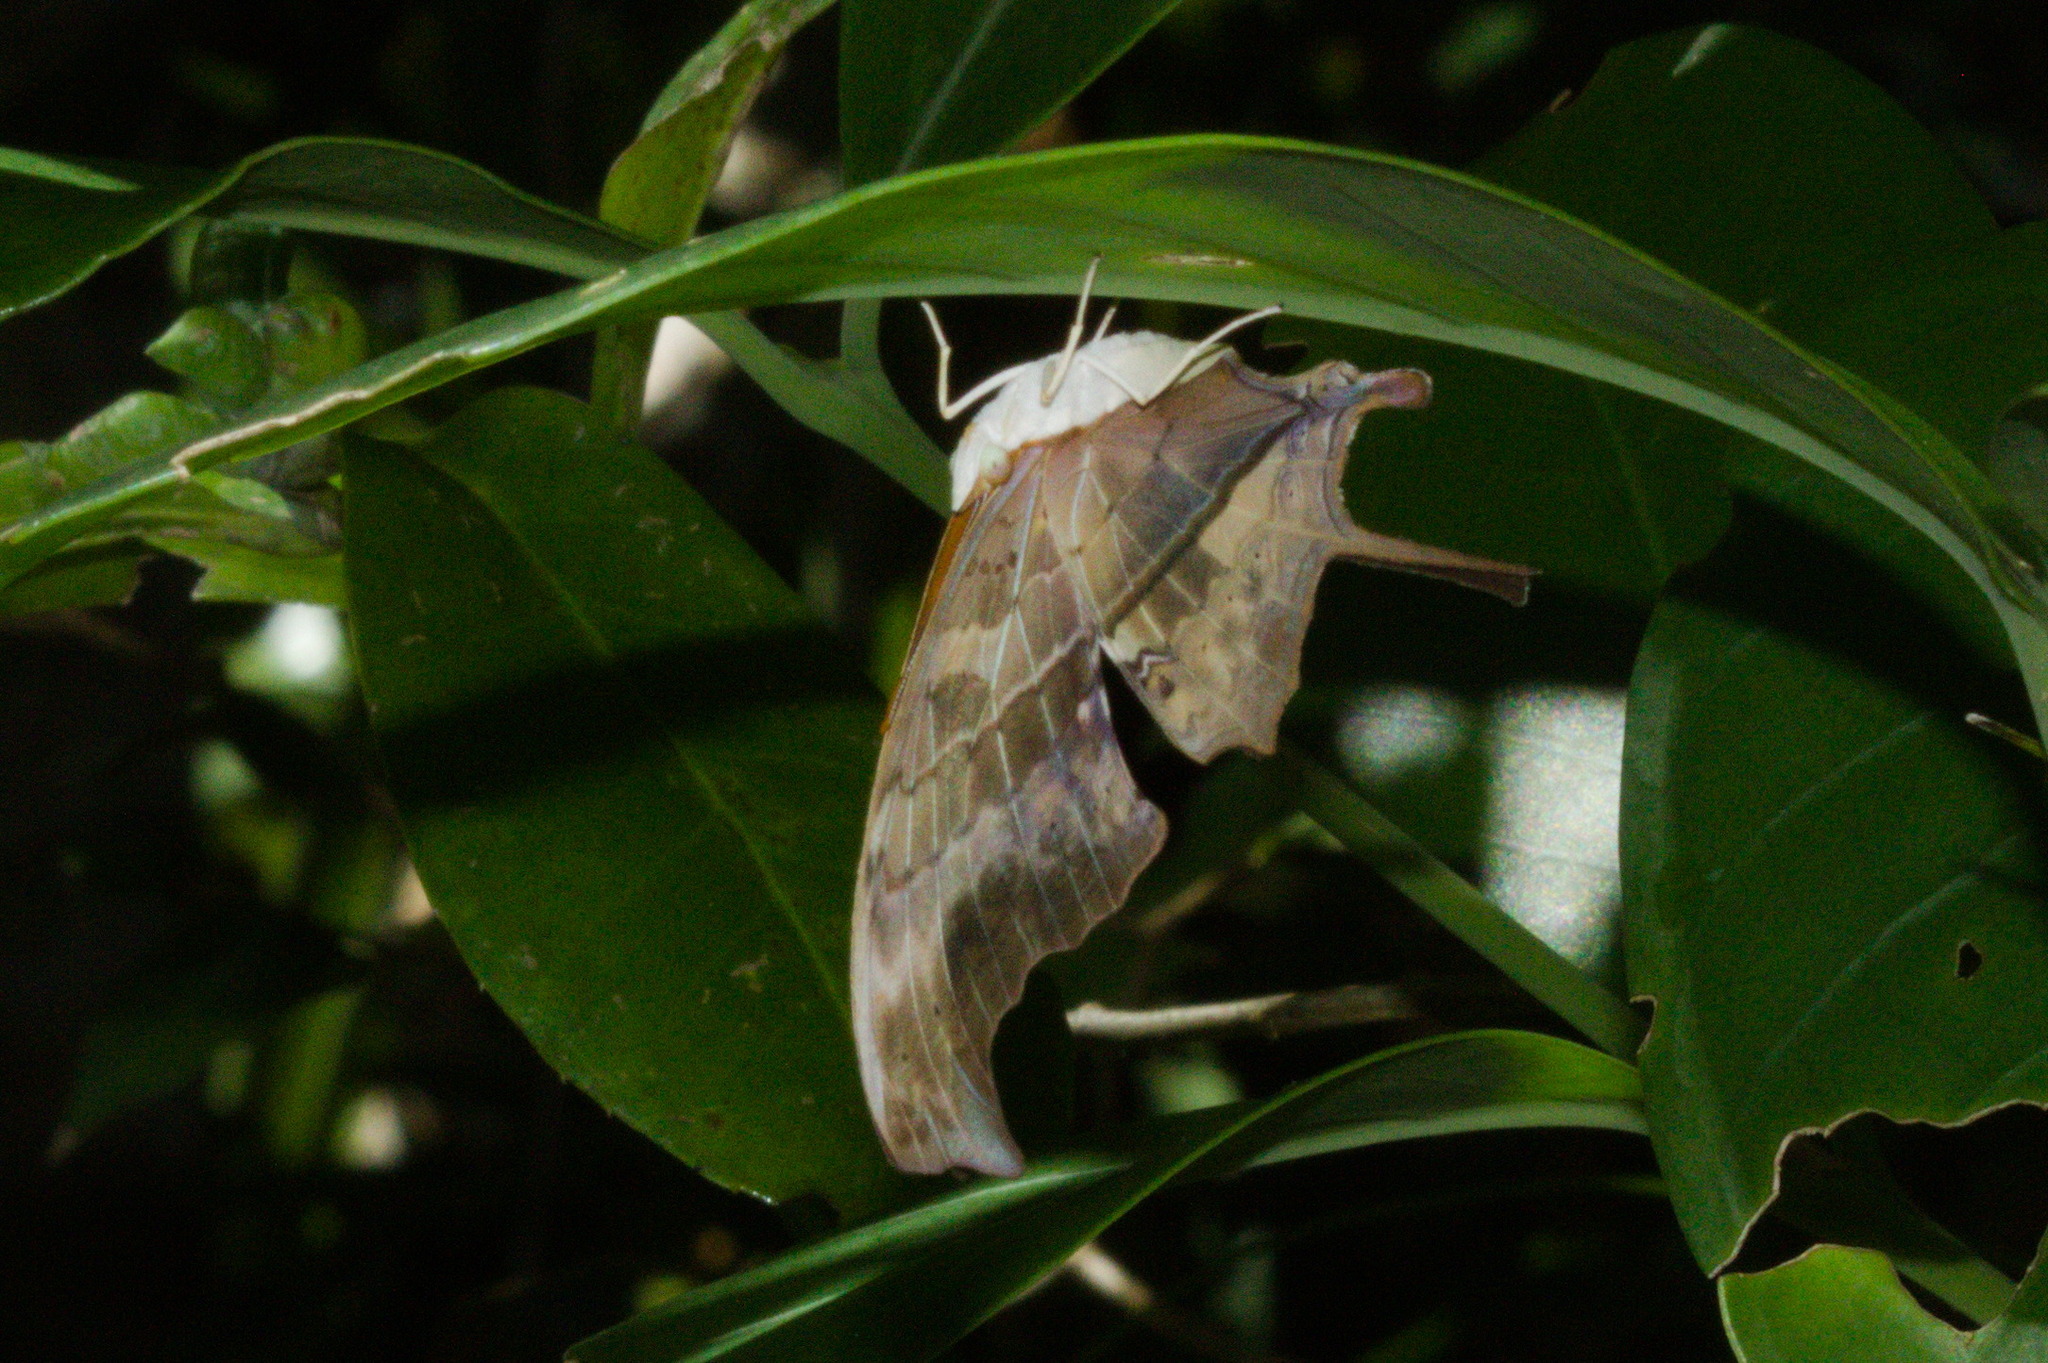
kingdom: Animalia
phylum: Arthropoda
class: Insecta
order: Lepidoptera
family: Nymphalidae
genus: Marpesia
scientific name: Marpesia petreus
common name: Red dagger wing
